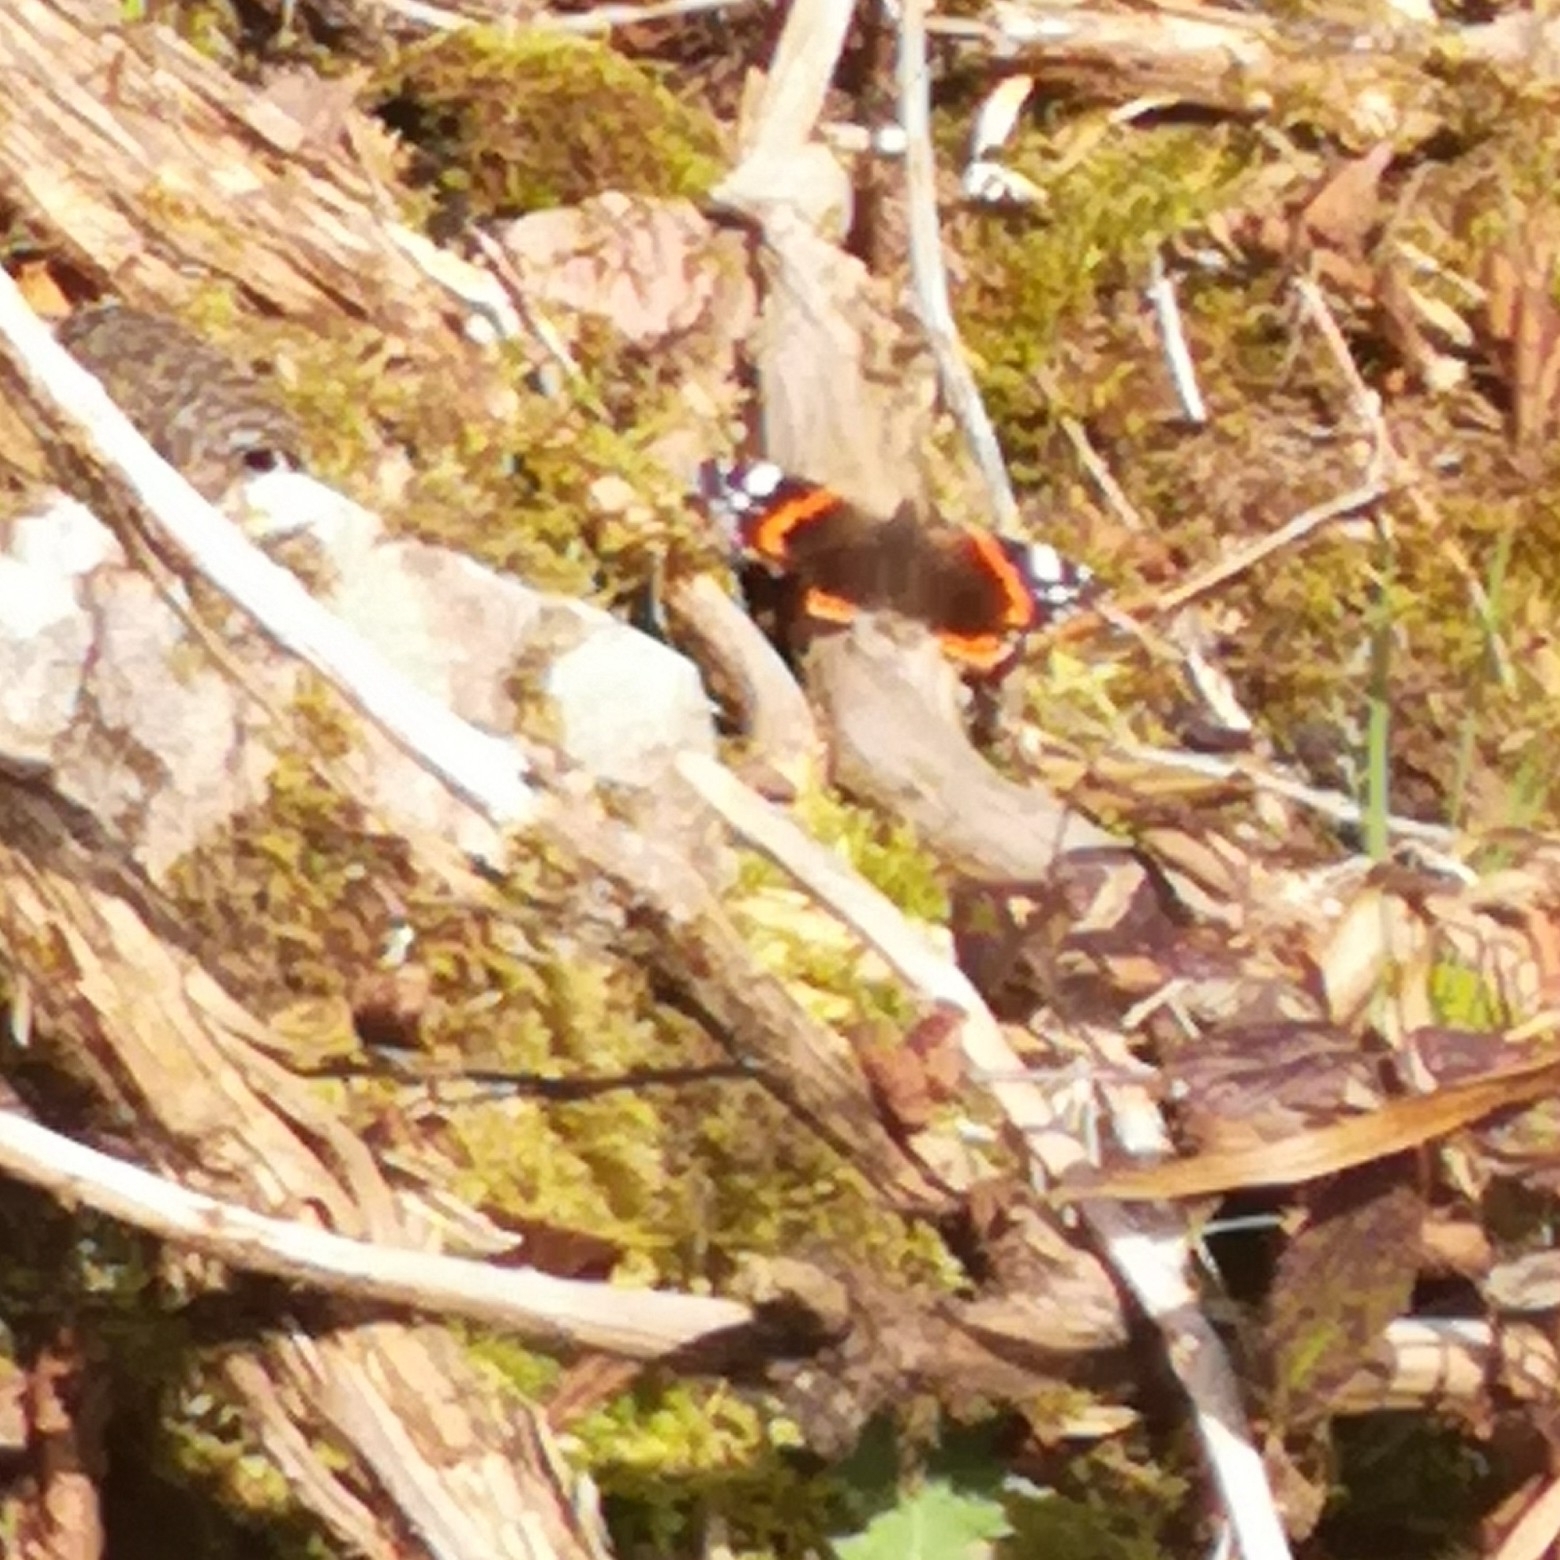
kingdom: Animalia
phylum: Arthropoda
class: Insecta
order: Lepidoptera
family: Nymphalidae
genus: Vanessa
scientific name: Vanessa atalanta
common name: Red admiral
